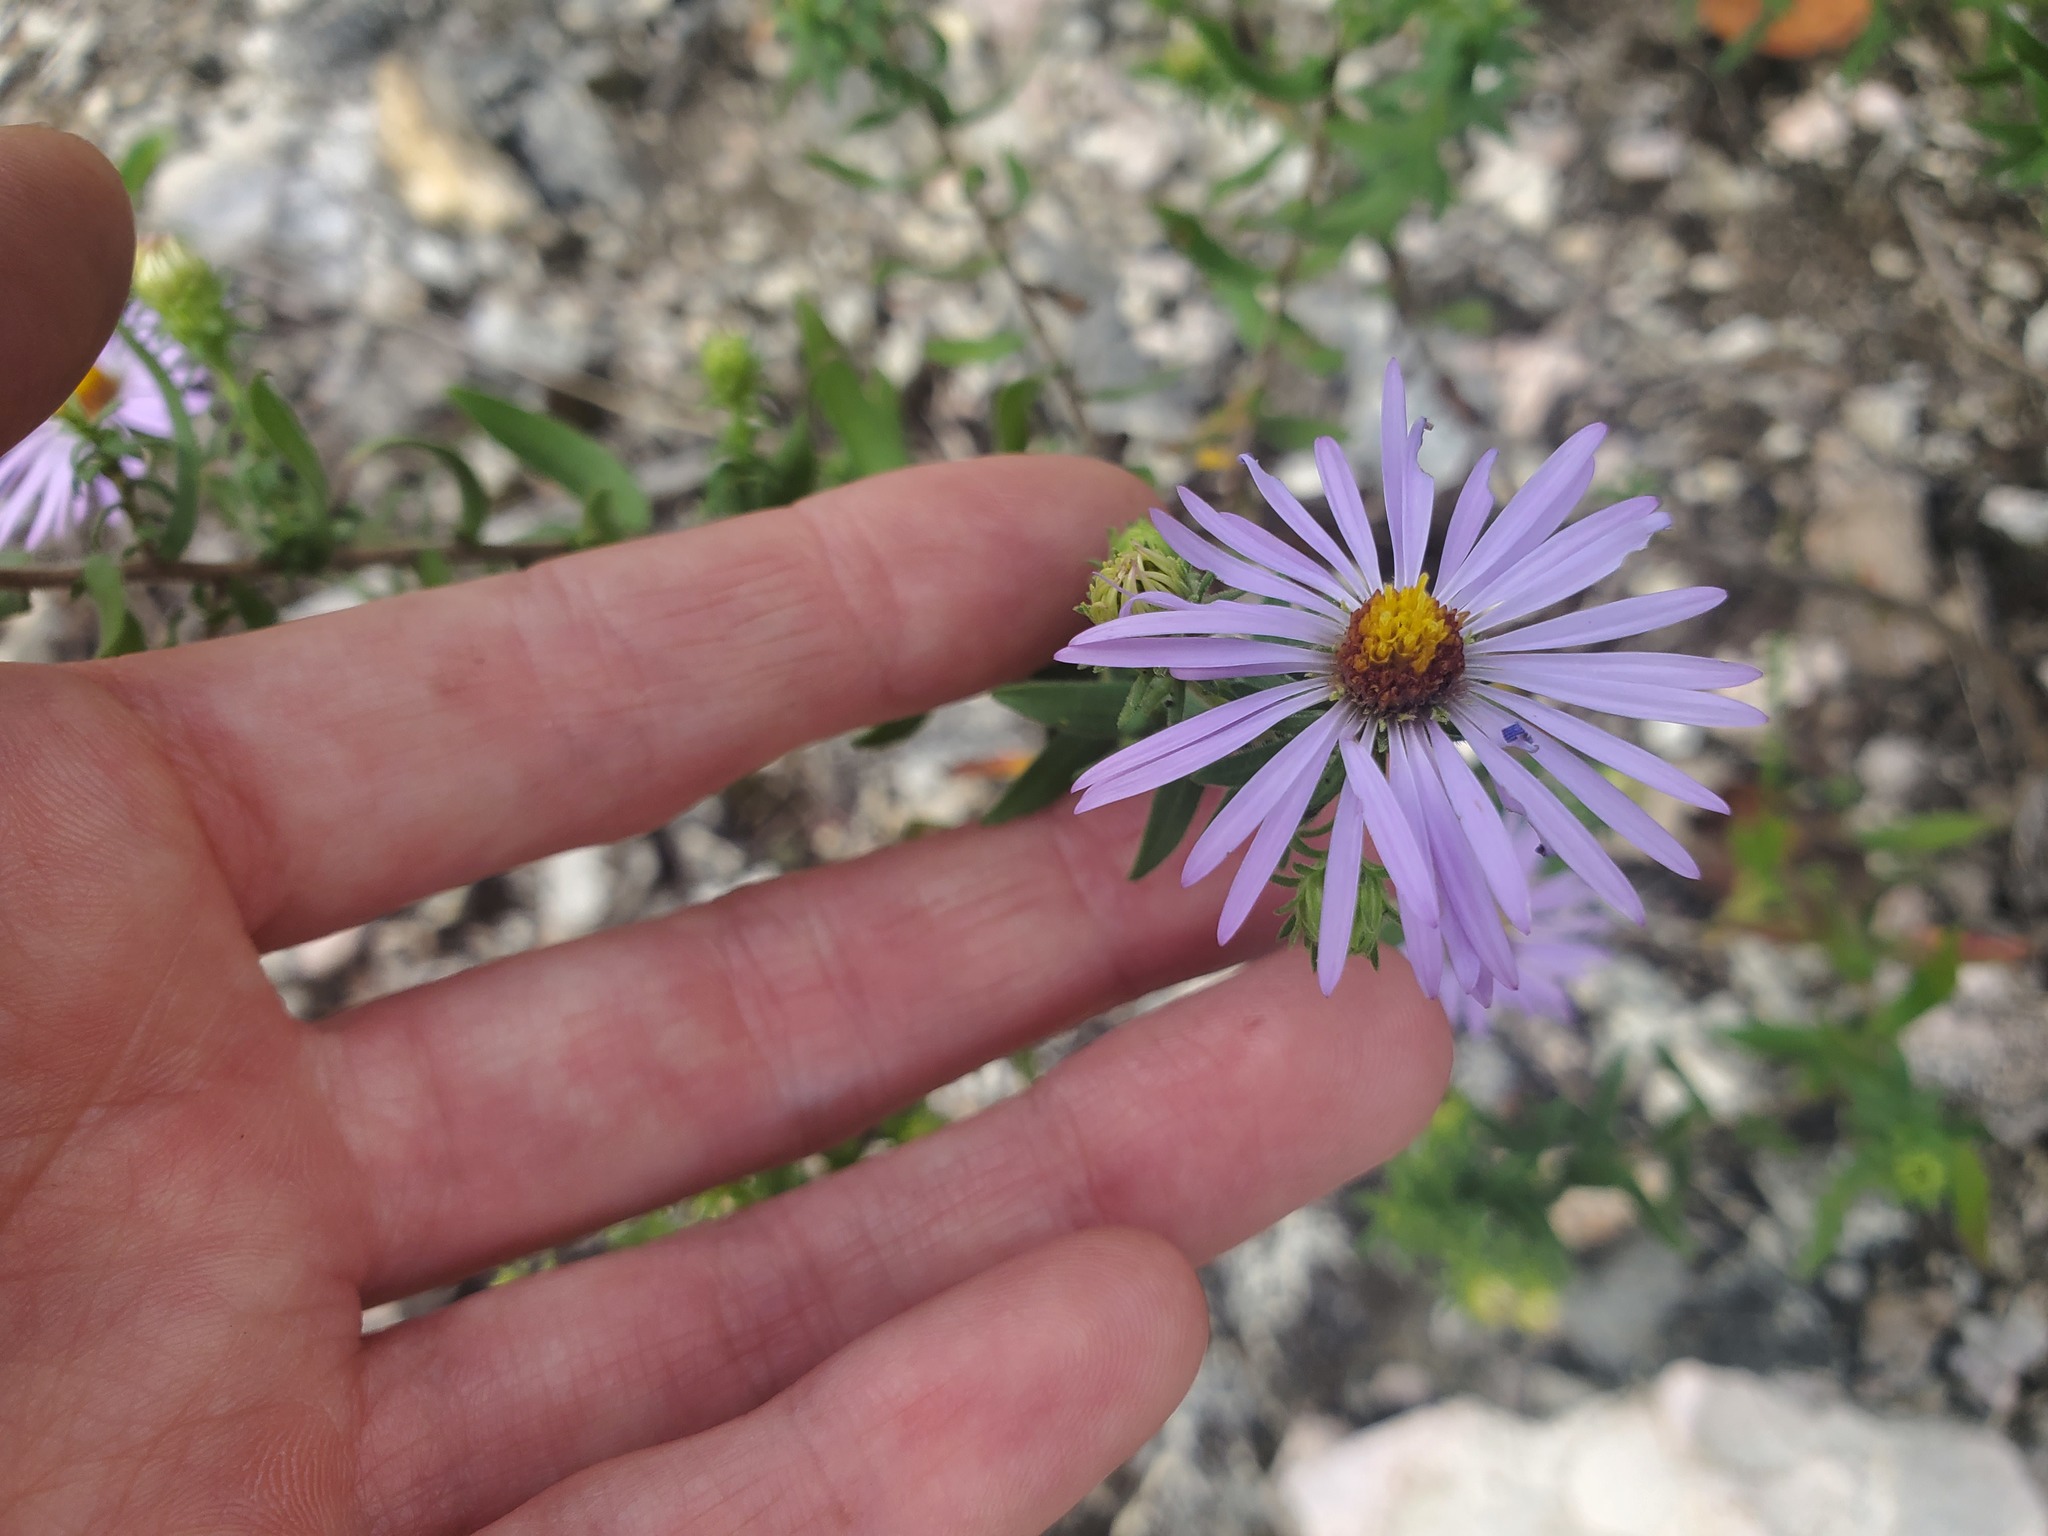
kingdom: Plantae
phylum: Tracheophyta
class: Magnoliopsida
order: Asterales
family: Asteraceae
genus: Symphyotrichum
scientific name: Symphyotrichum oblongifolium
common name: Aromatic aster
